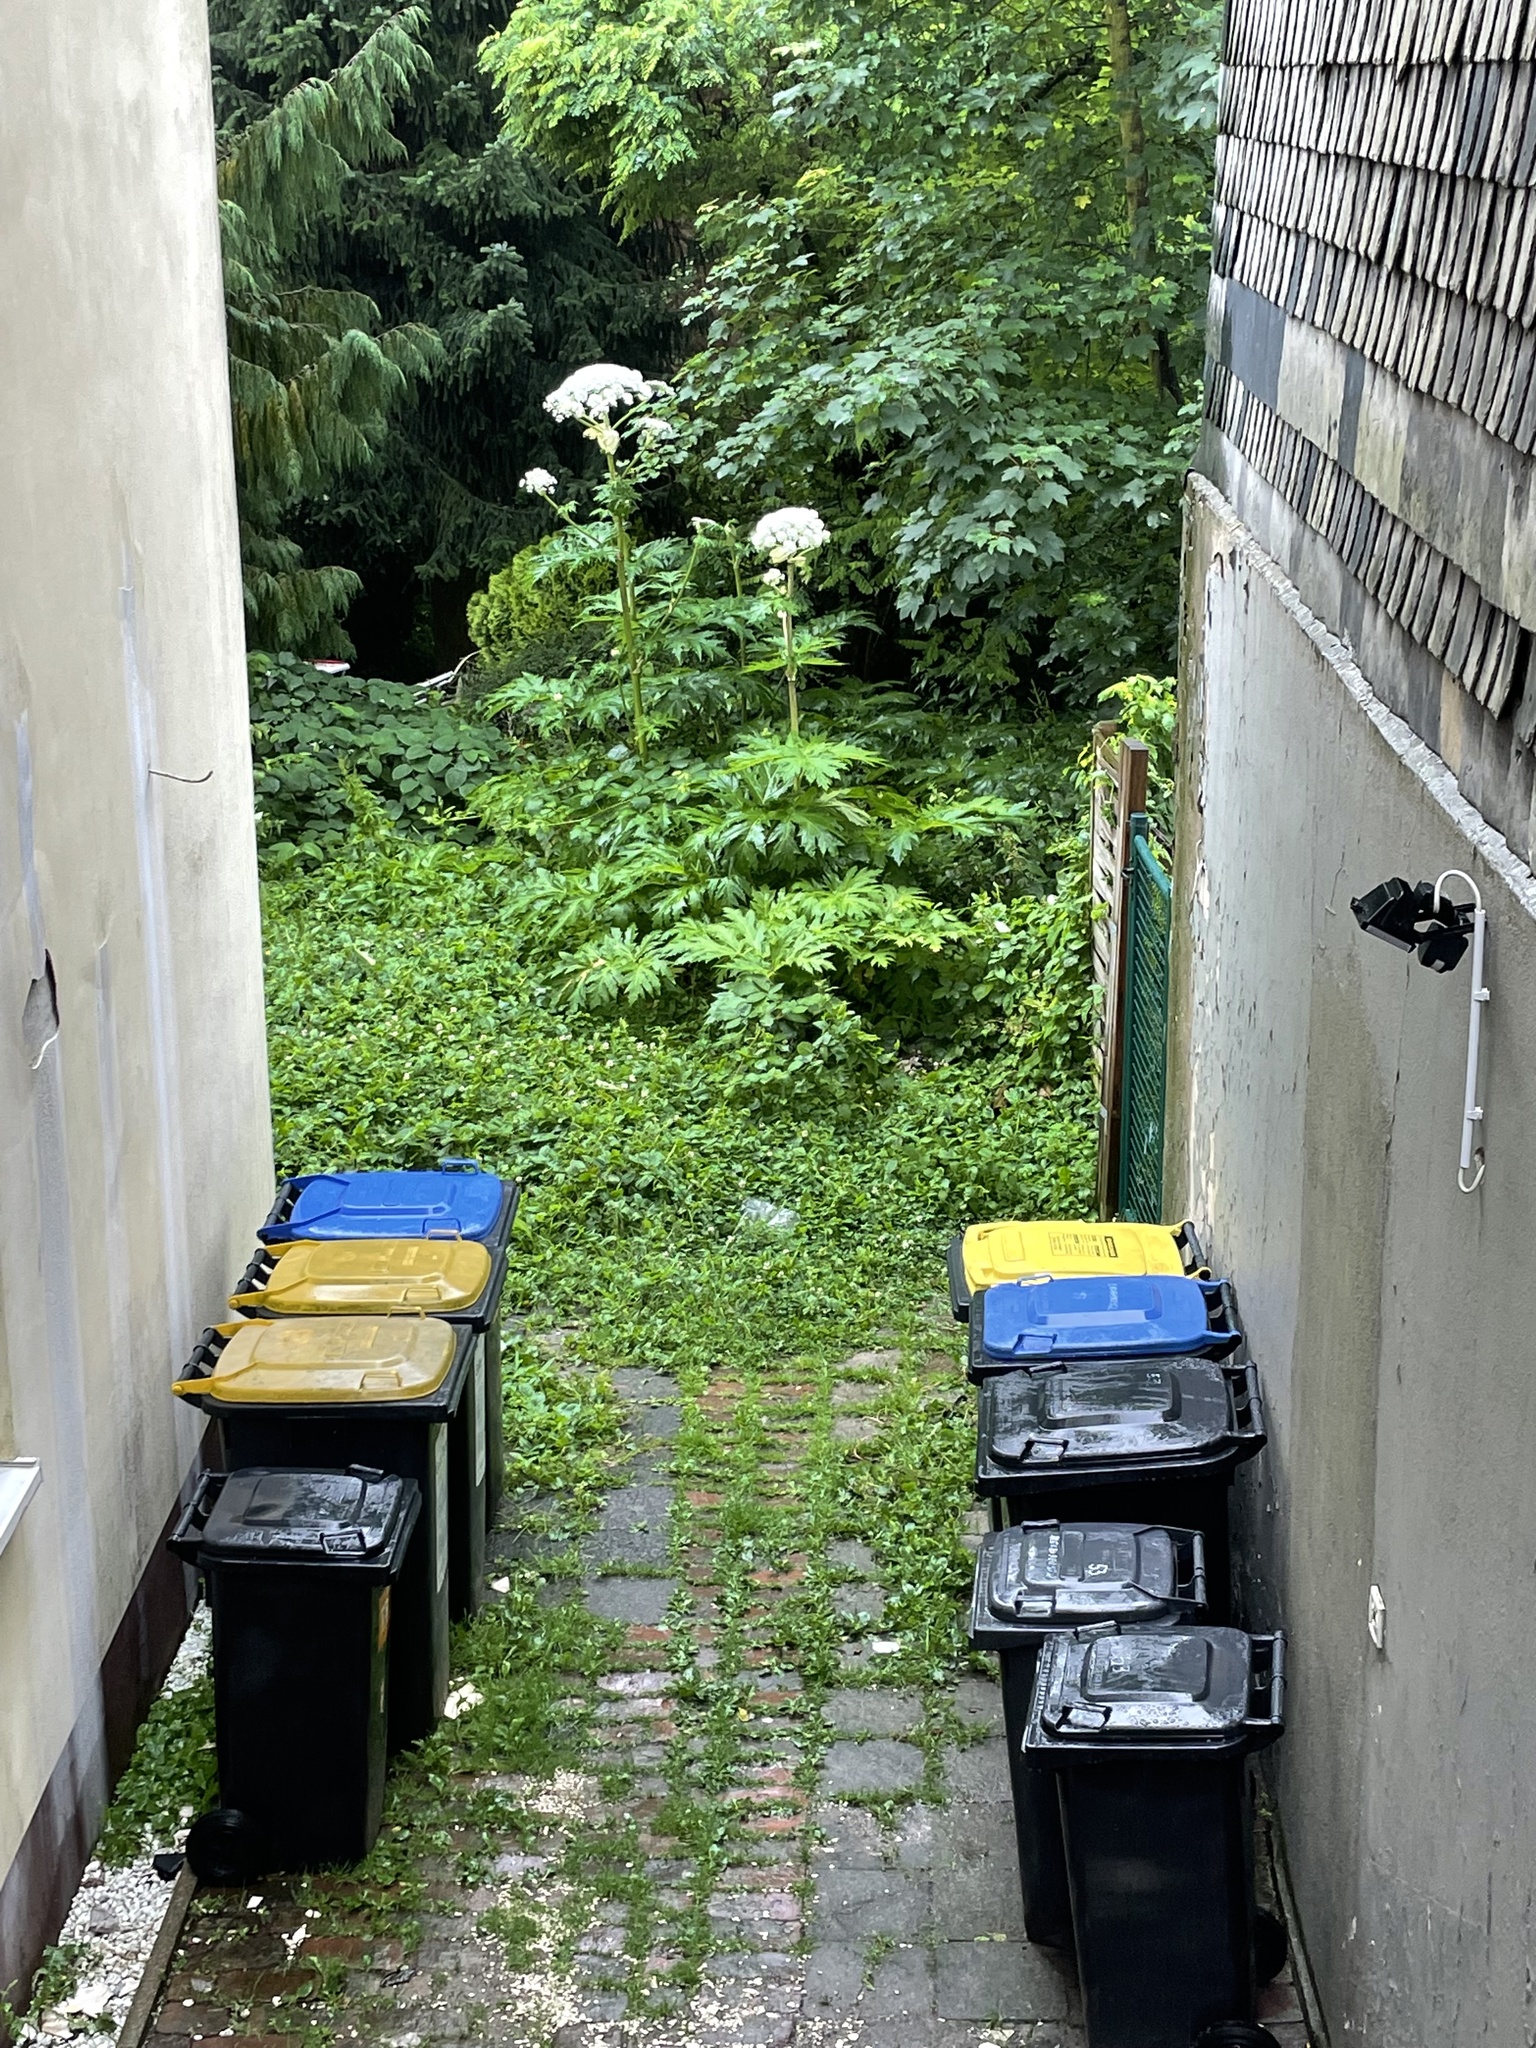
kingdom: Plantae
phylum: Tracheophyta
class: Magnoliopsida
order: Apiales
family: Apiaceae
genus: Heracleum
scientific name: Heracleum mantegazzianum
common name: Giant hogweed
